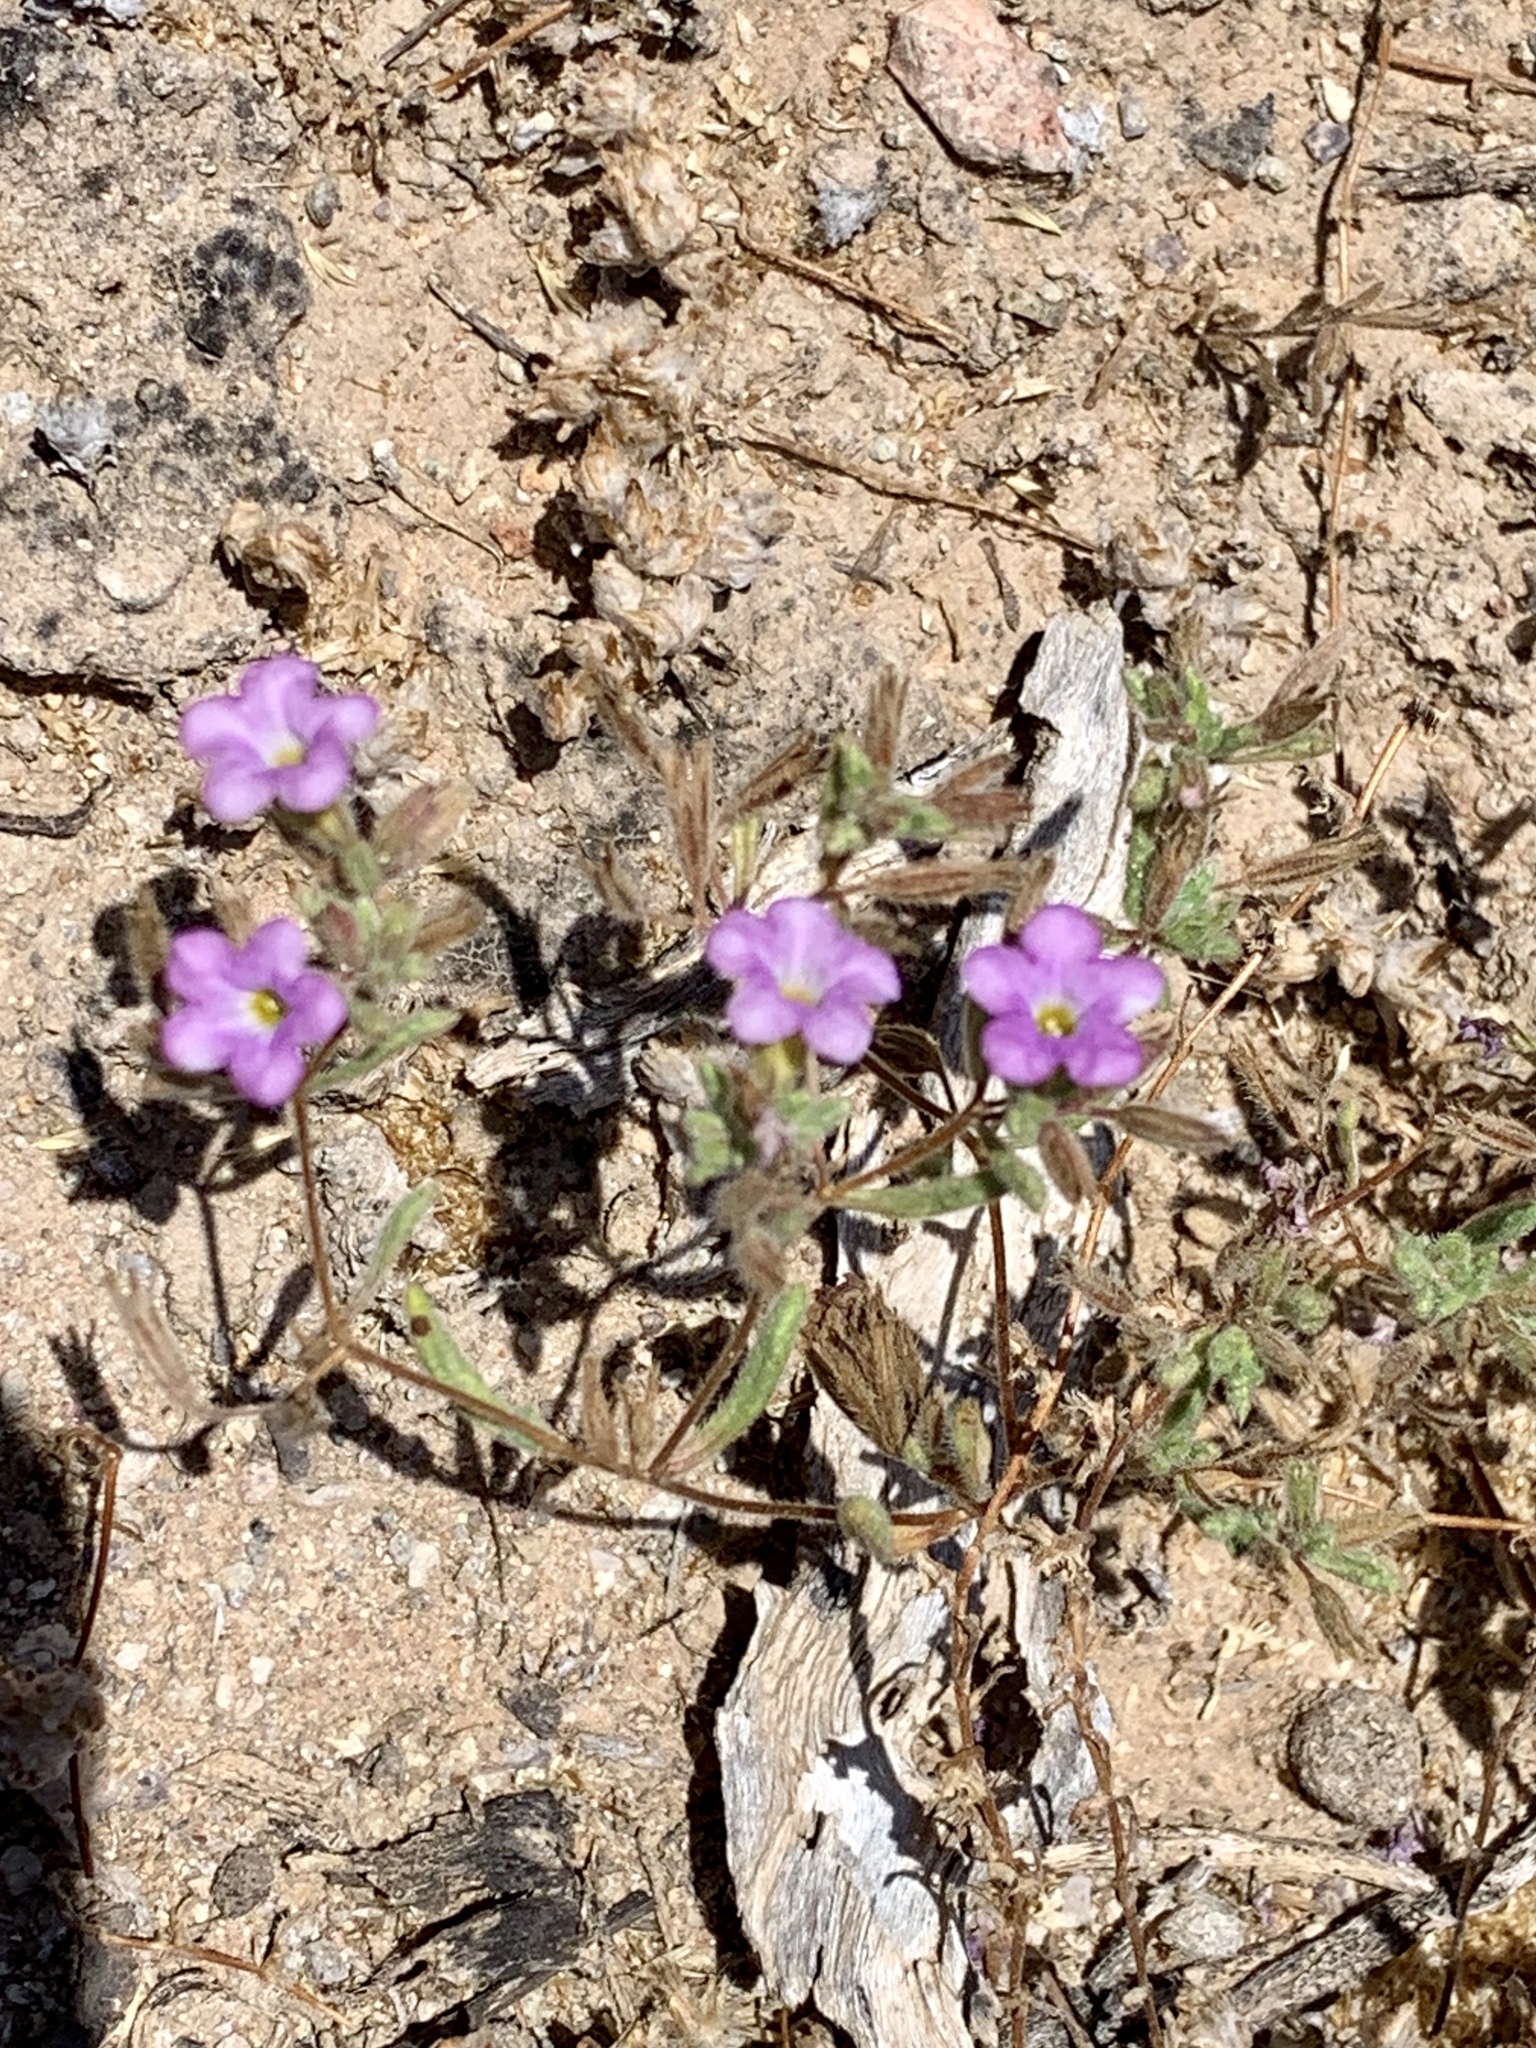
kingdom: Plantae
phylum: Tracheophyta
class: Magnoliopsida
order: Boraginales
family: Namaceae
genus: Nama
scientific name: Nama hispida
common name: Bristly nama
